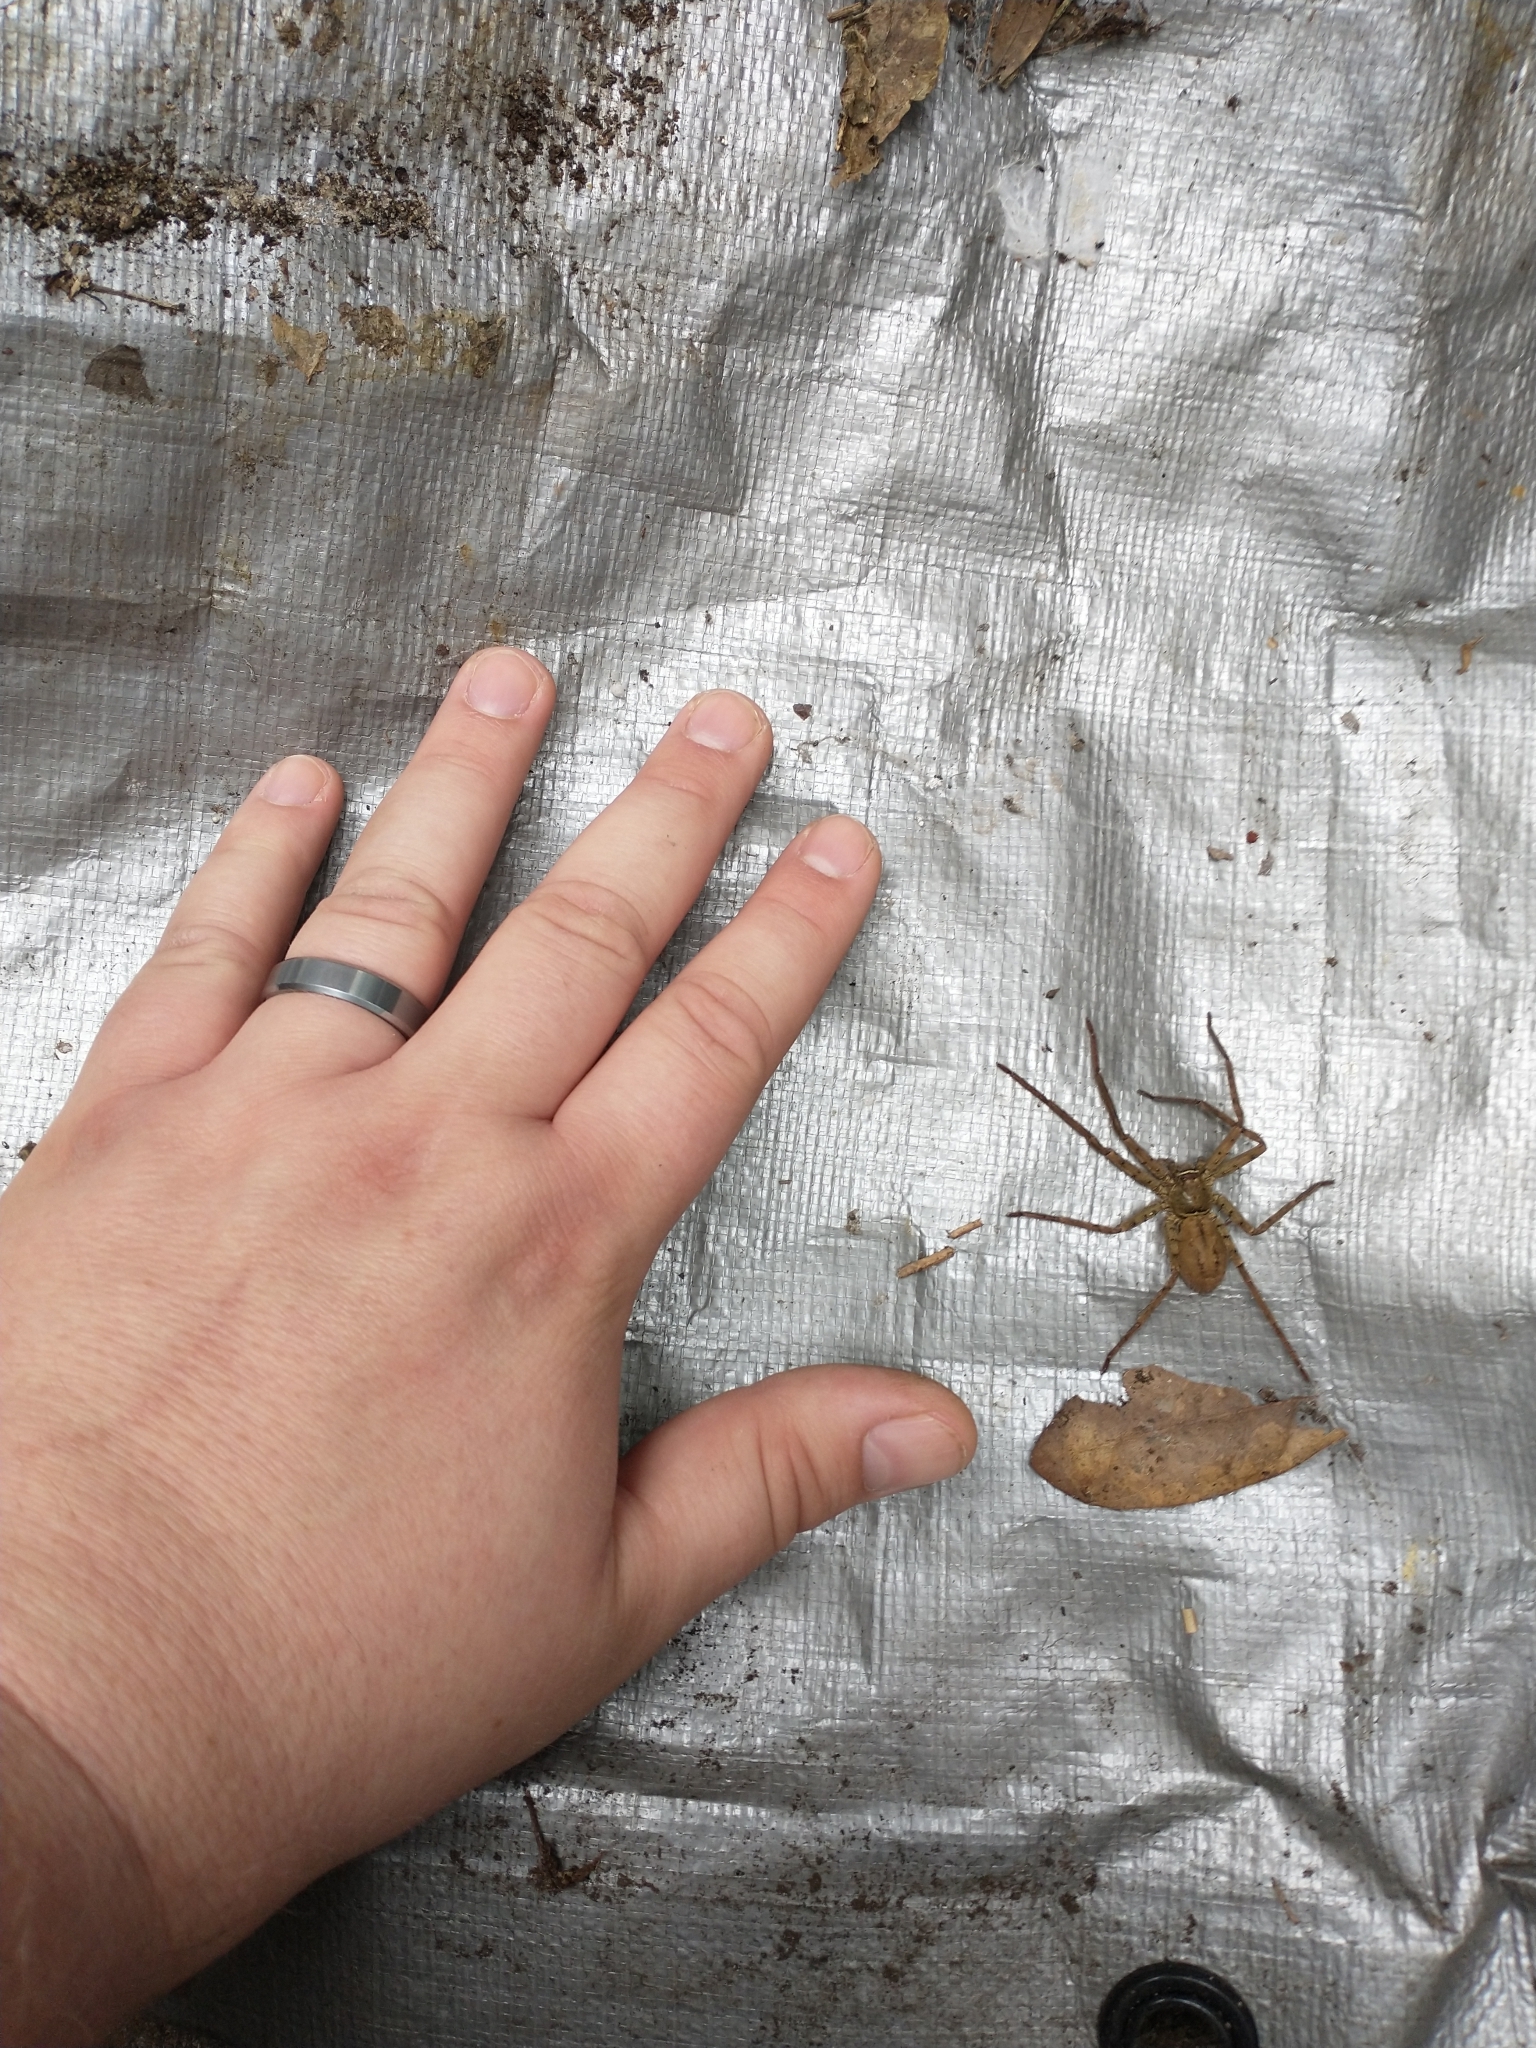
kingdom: Animalia
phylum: Arthropoda
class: Arachnida
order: Araneae
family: Sparassidae
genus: Heteropoda
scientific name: Heteropoda venatoria
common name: Huntsman spider
